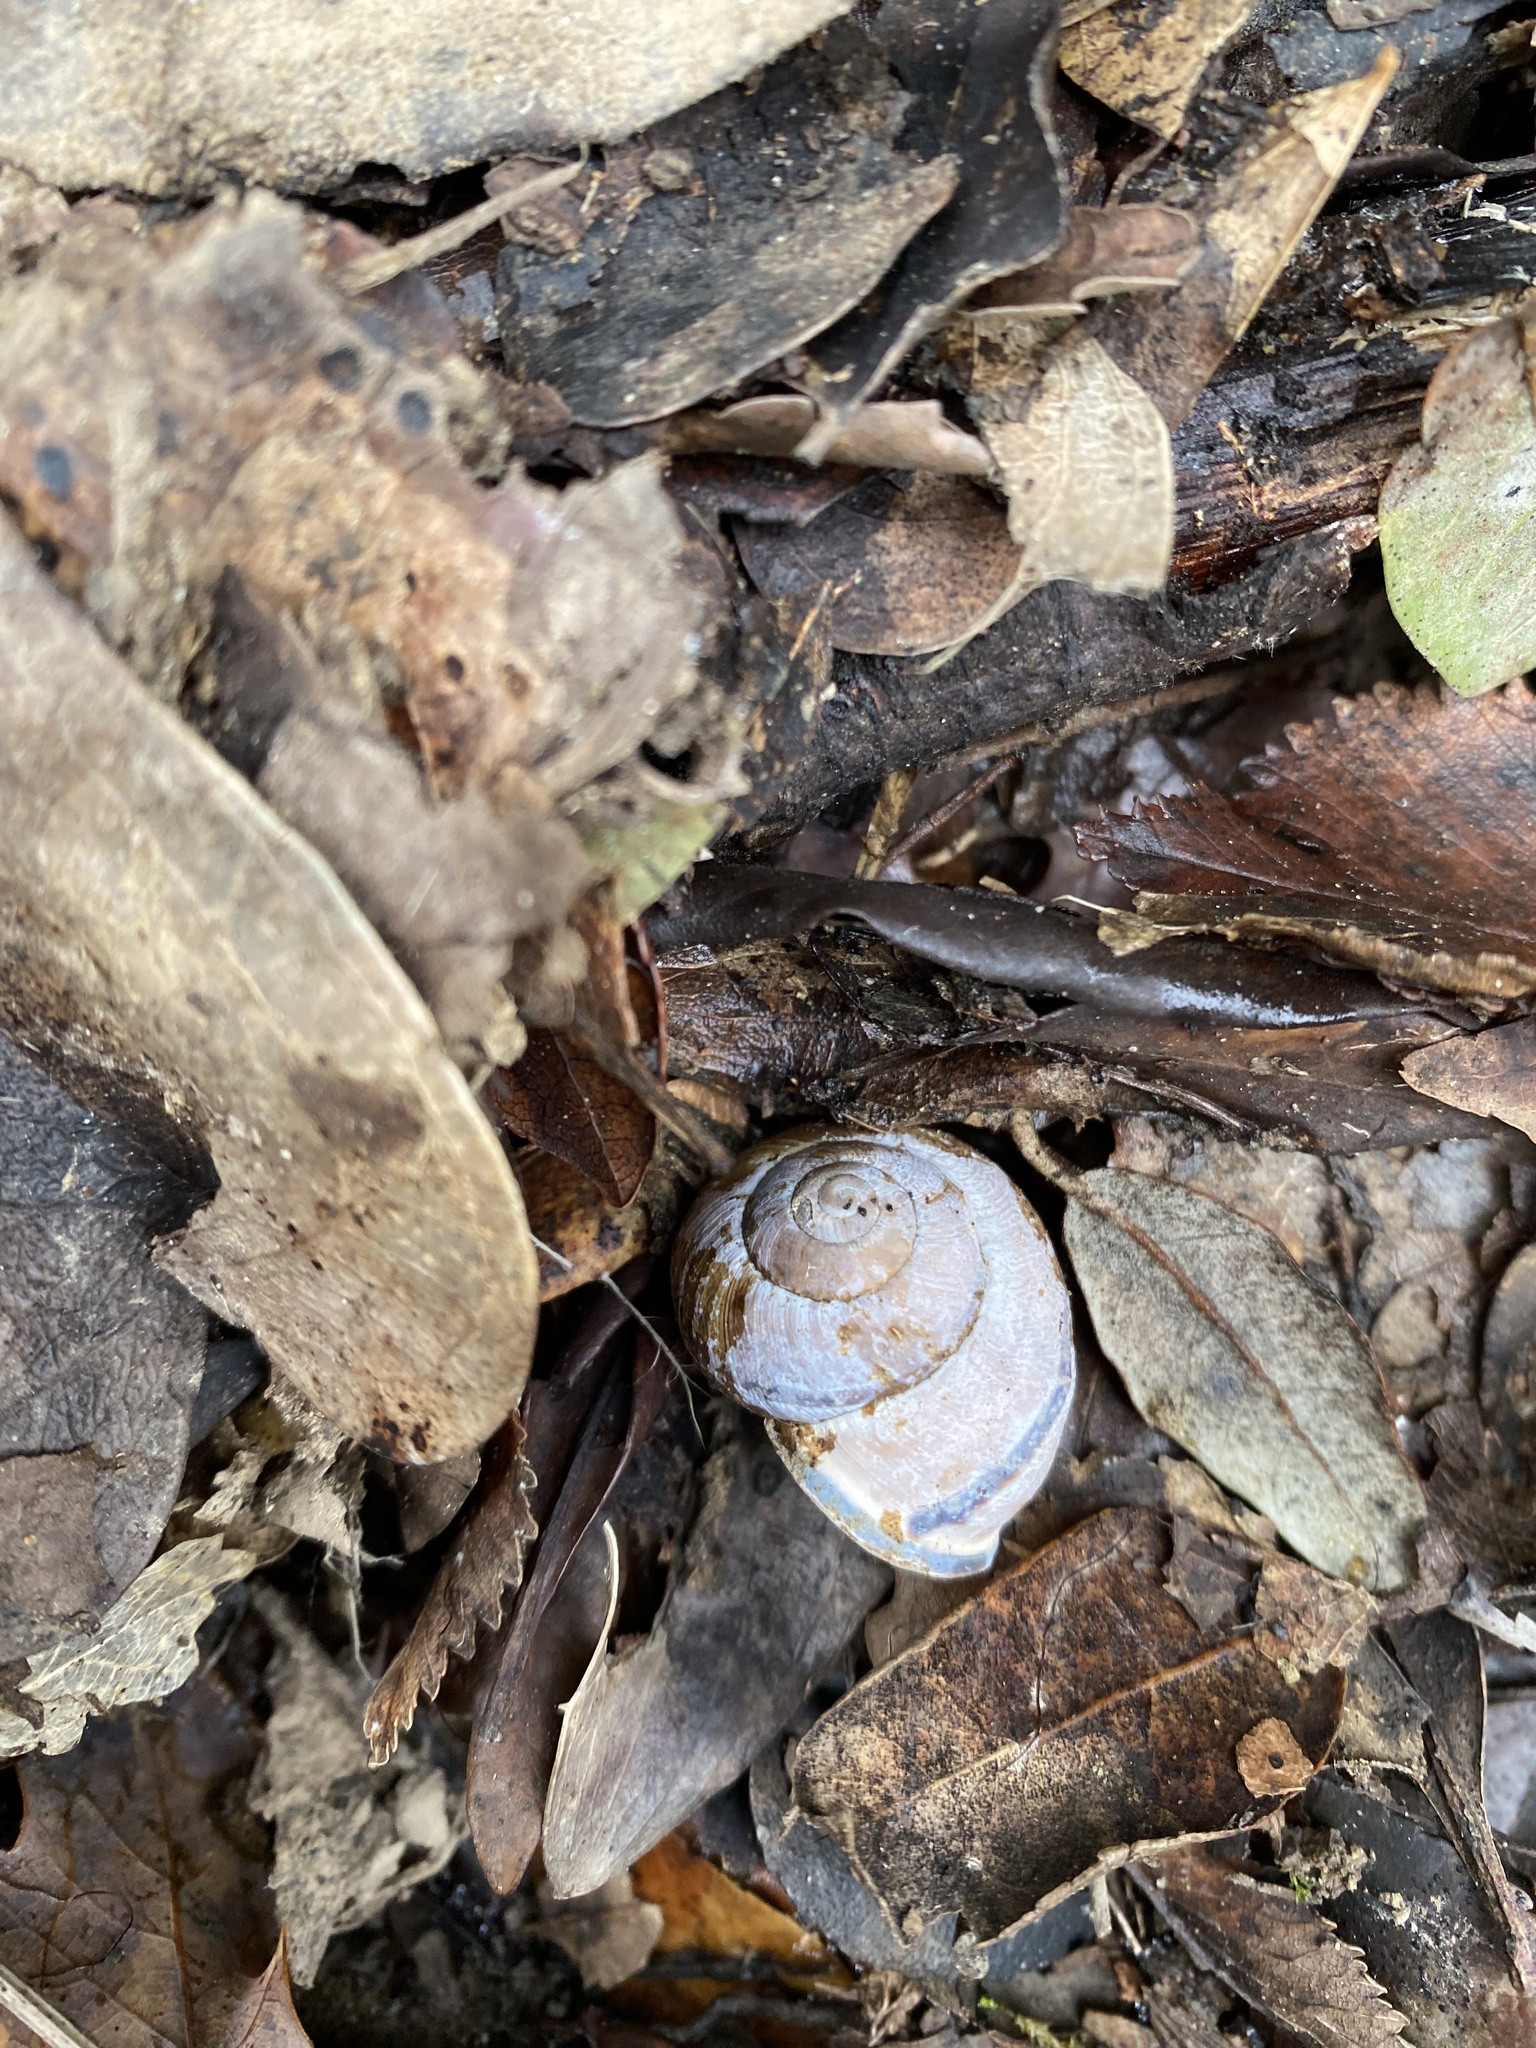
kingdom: Animalia
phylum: Mollusca
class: Gastropoda
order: Stylommatophora
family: Helicidae
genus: Cepaea
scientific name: Cepaea nemoralis
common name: Grovesnail
